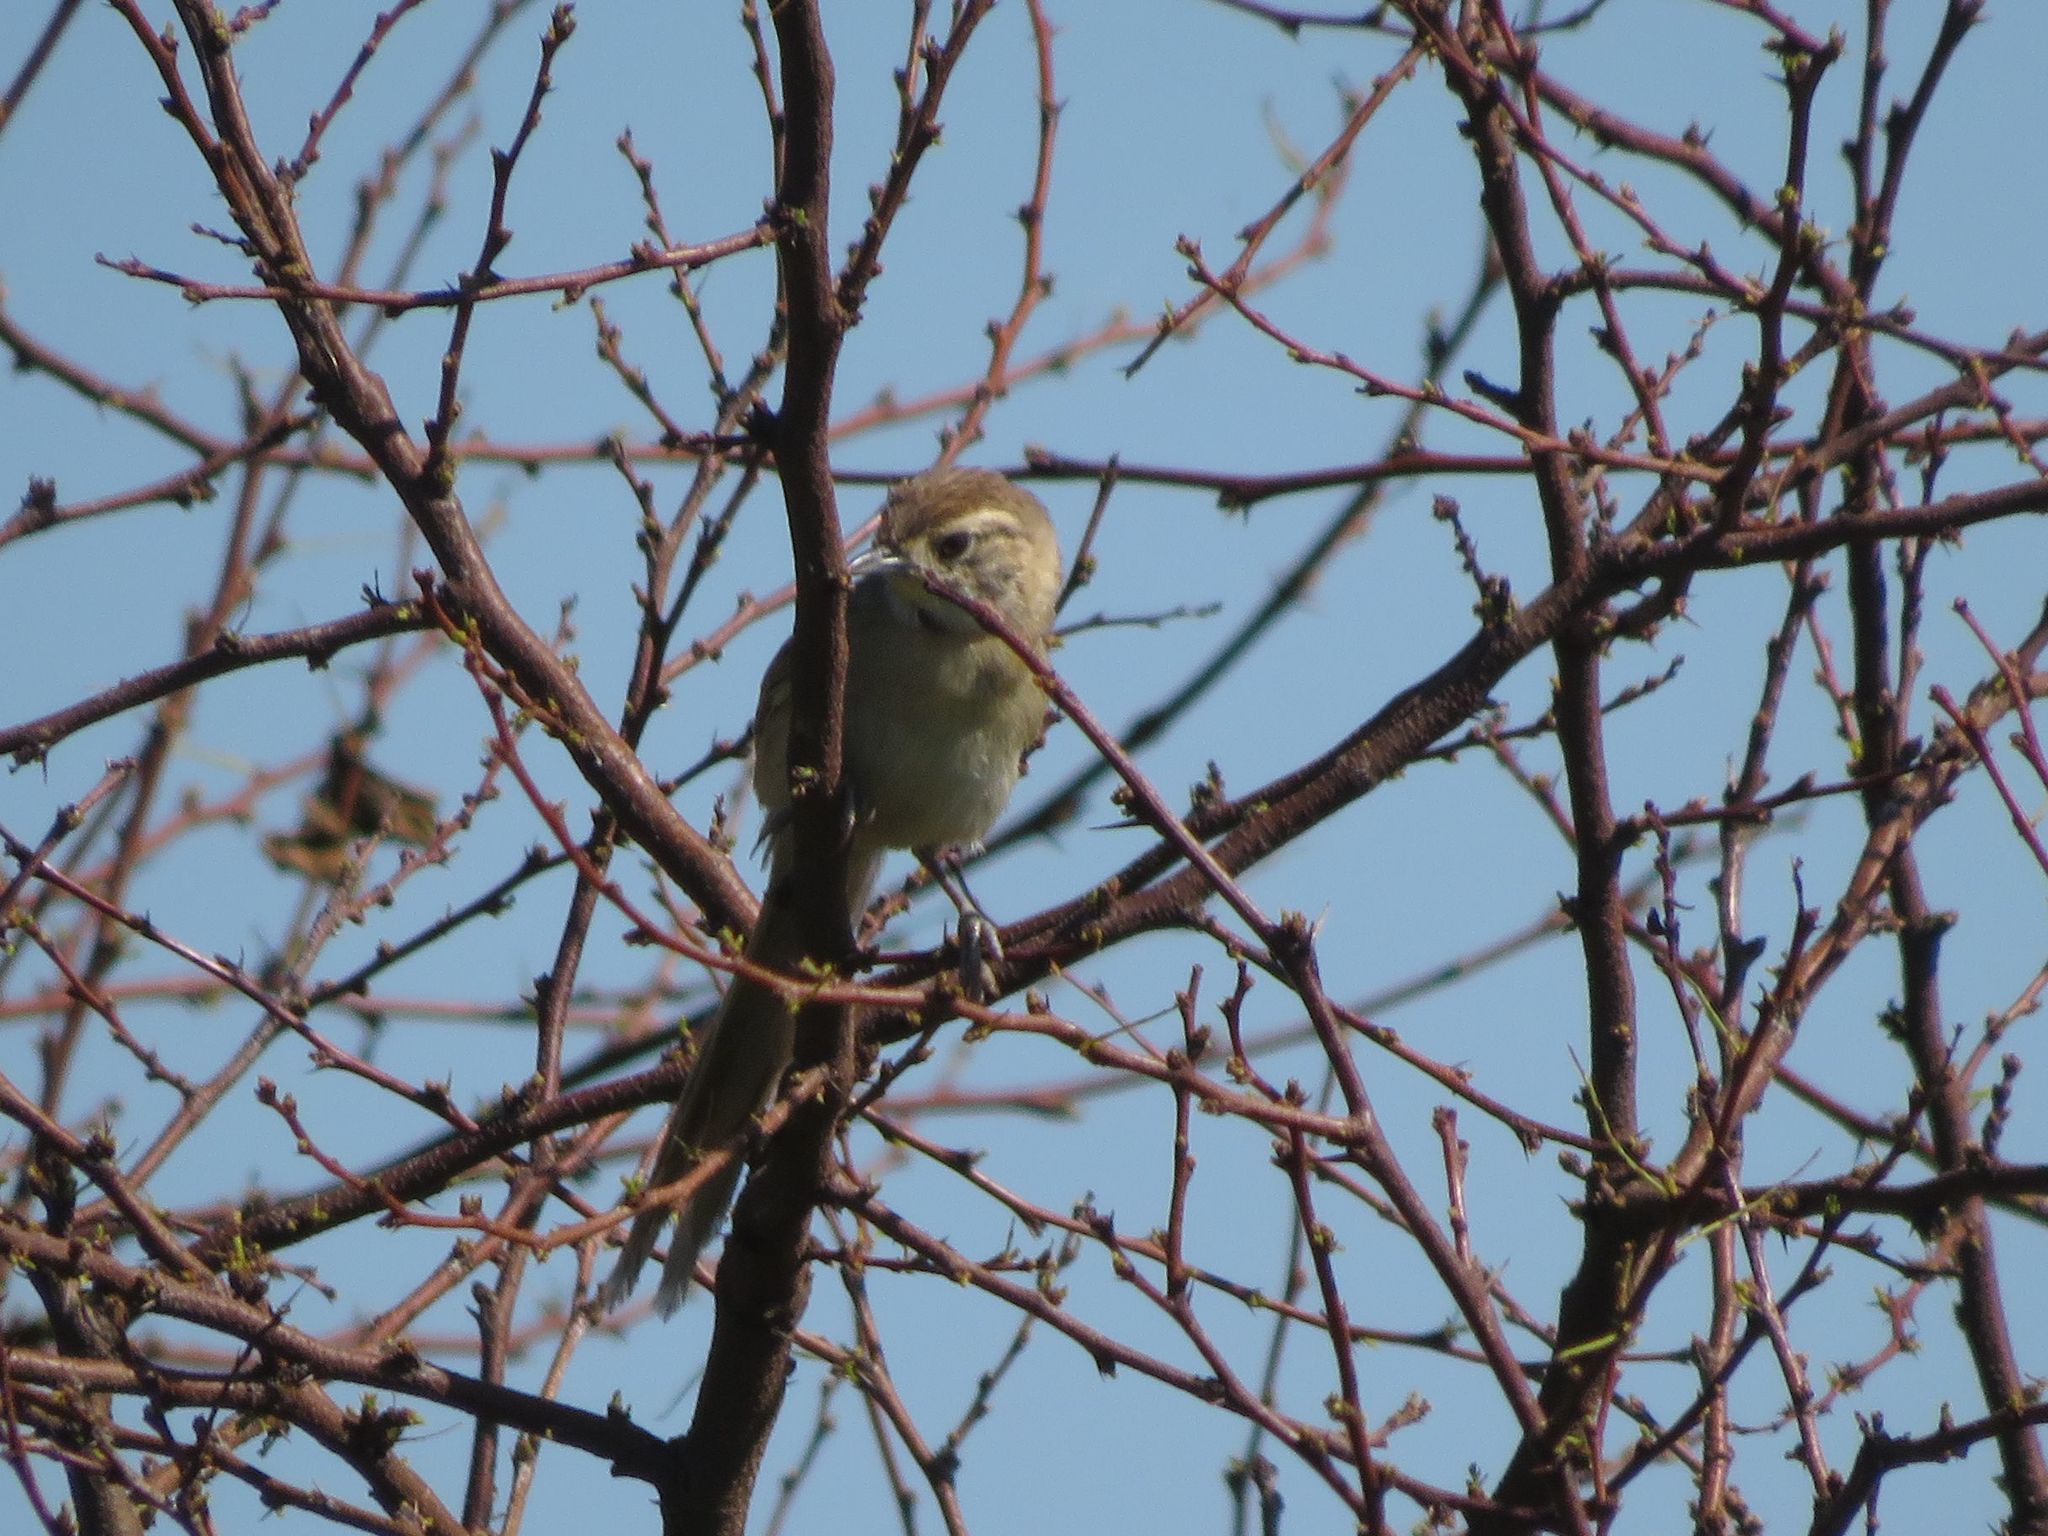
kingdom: Animalia
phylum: Chordata
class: Aves
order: Passeriformes
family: Furnariidae
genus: Schoeniophylax
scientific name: Schoeniophylax phryganophilus
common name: Chotoy spinetail
